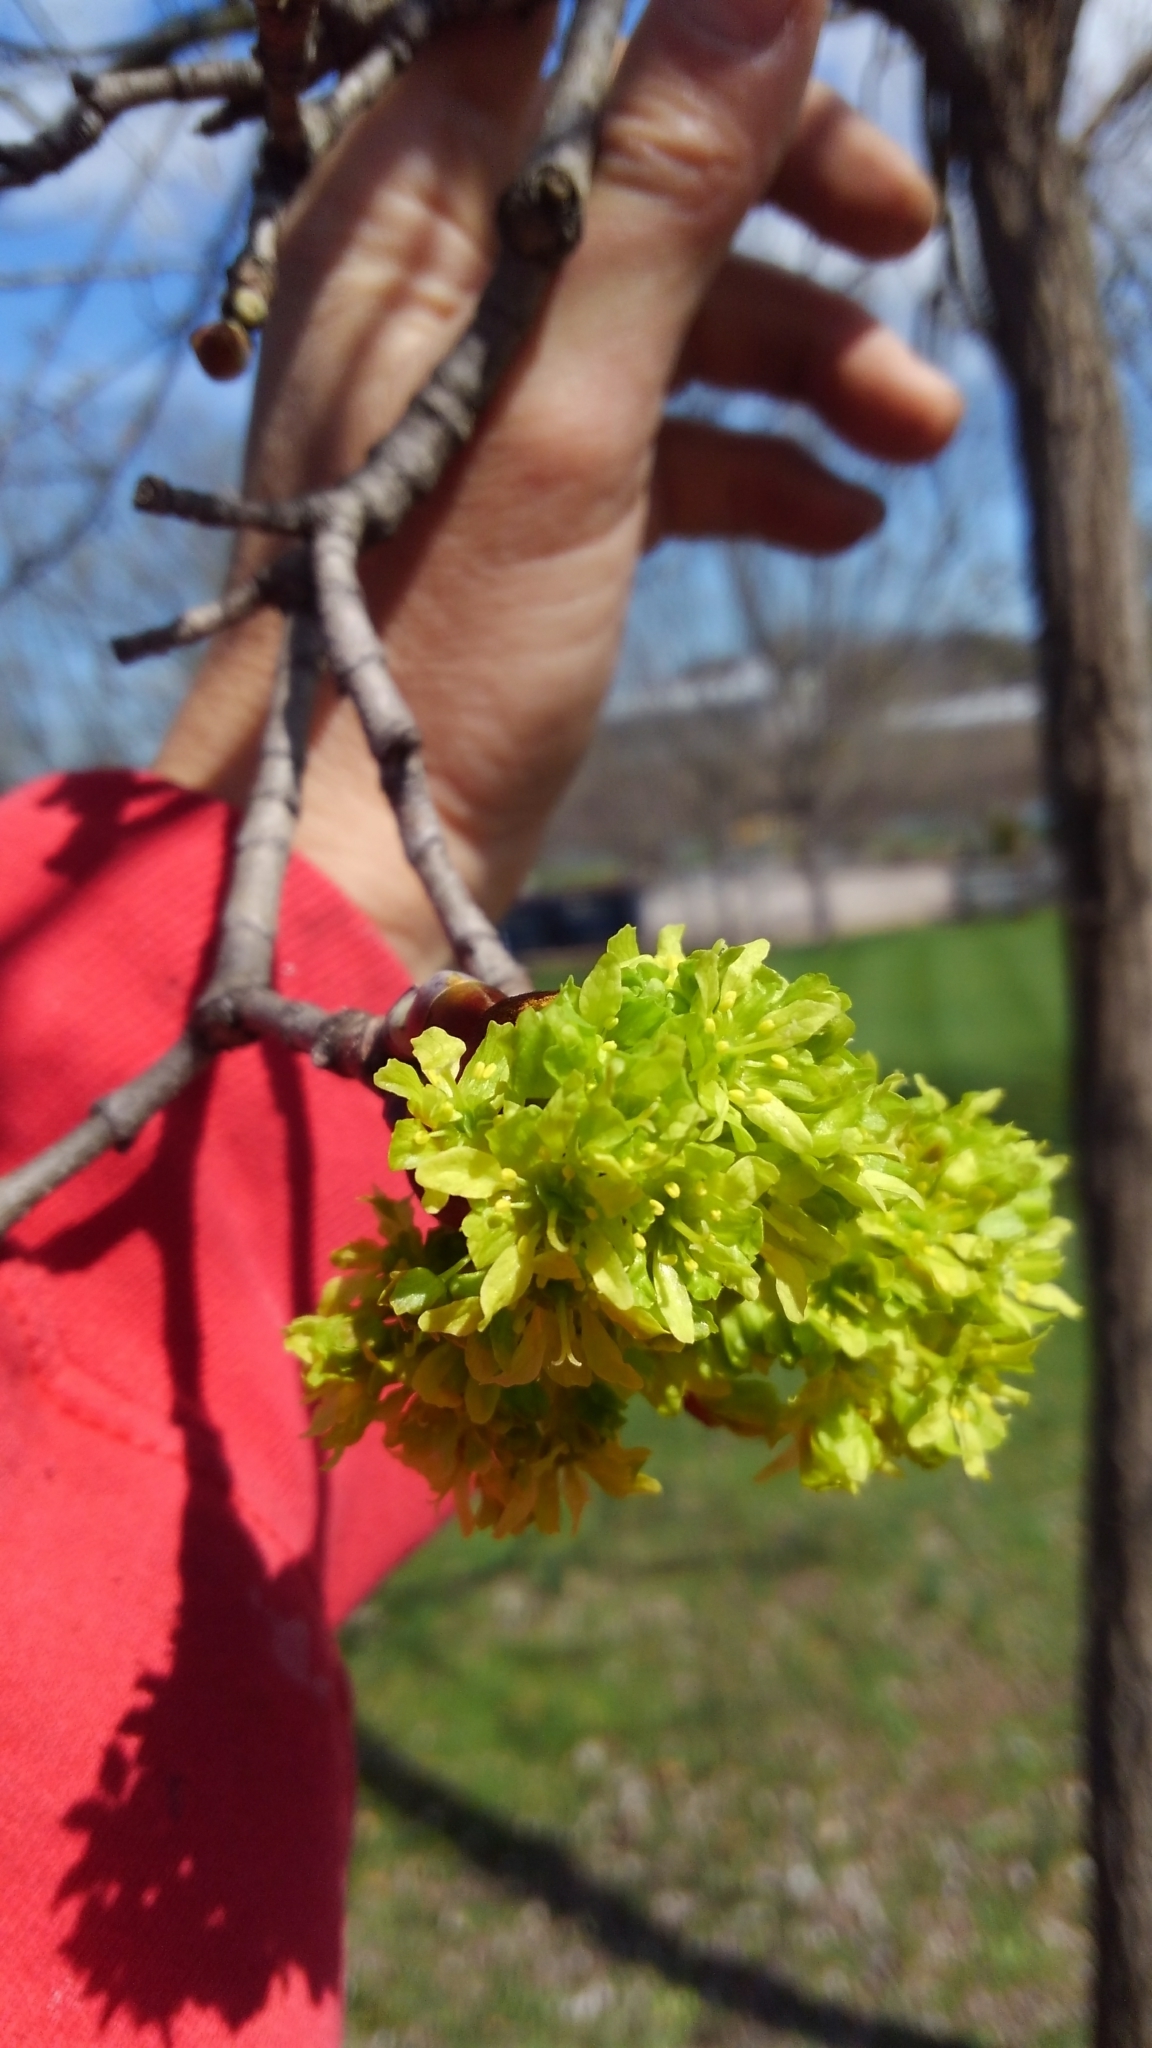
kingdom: Plantae
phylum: Tracheophyta
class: Magnoliopsida
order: Sapindales
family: Sapindaceae
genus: Acer
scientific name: Acer platanoides
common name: Norway maple
